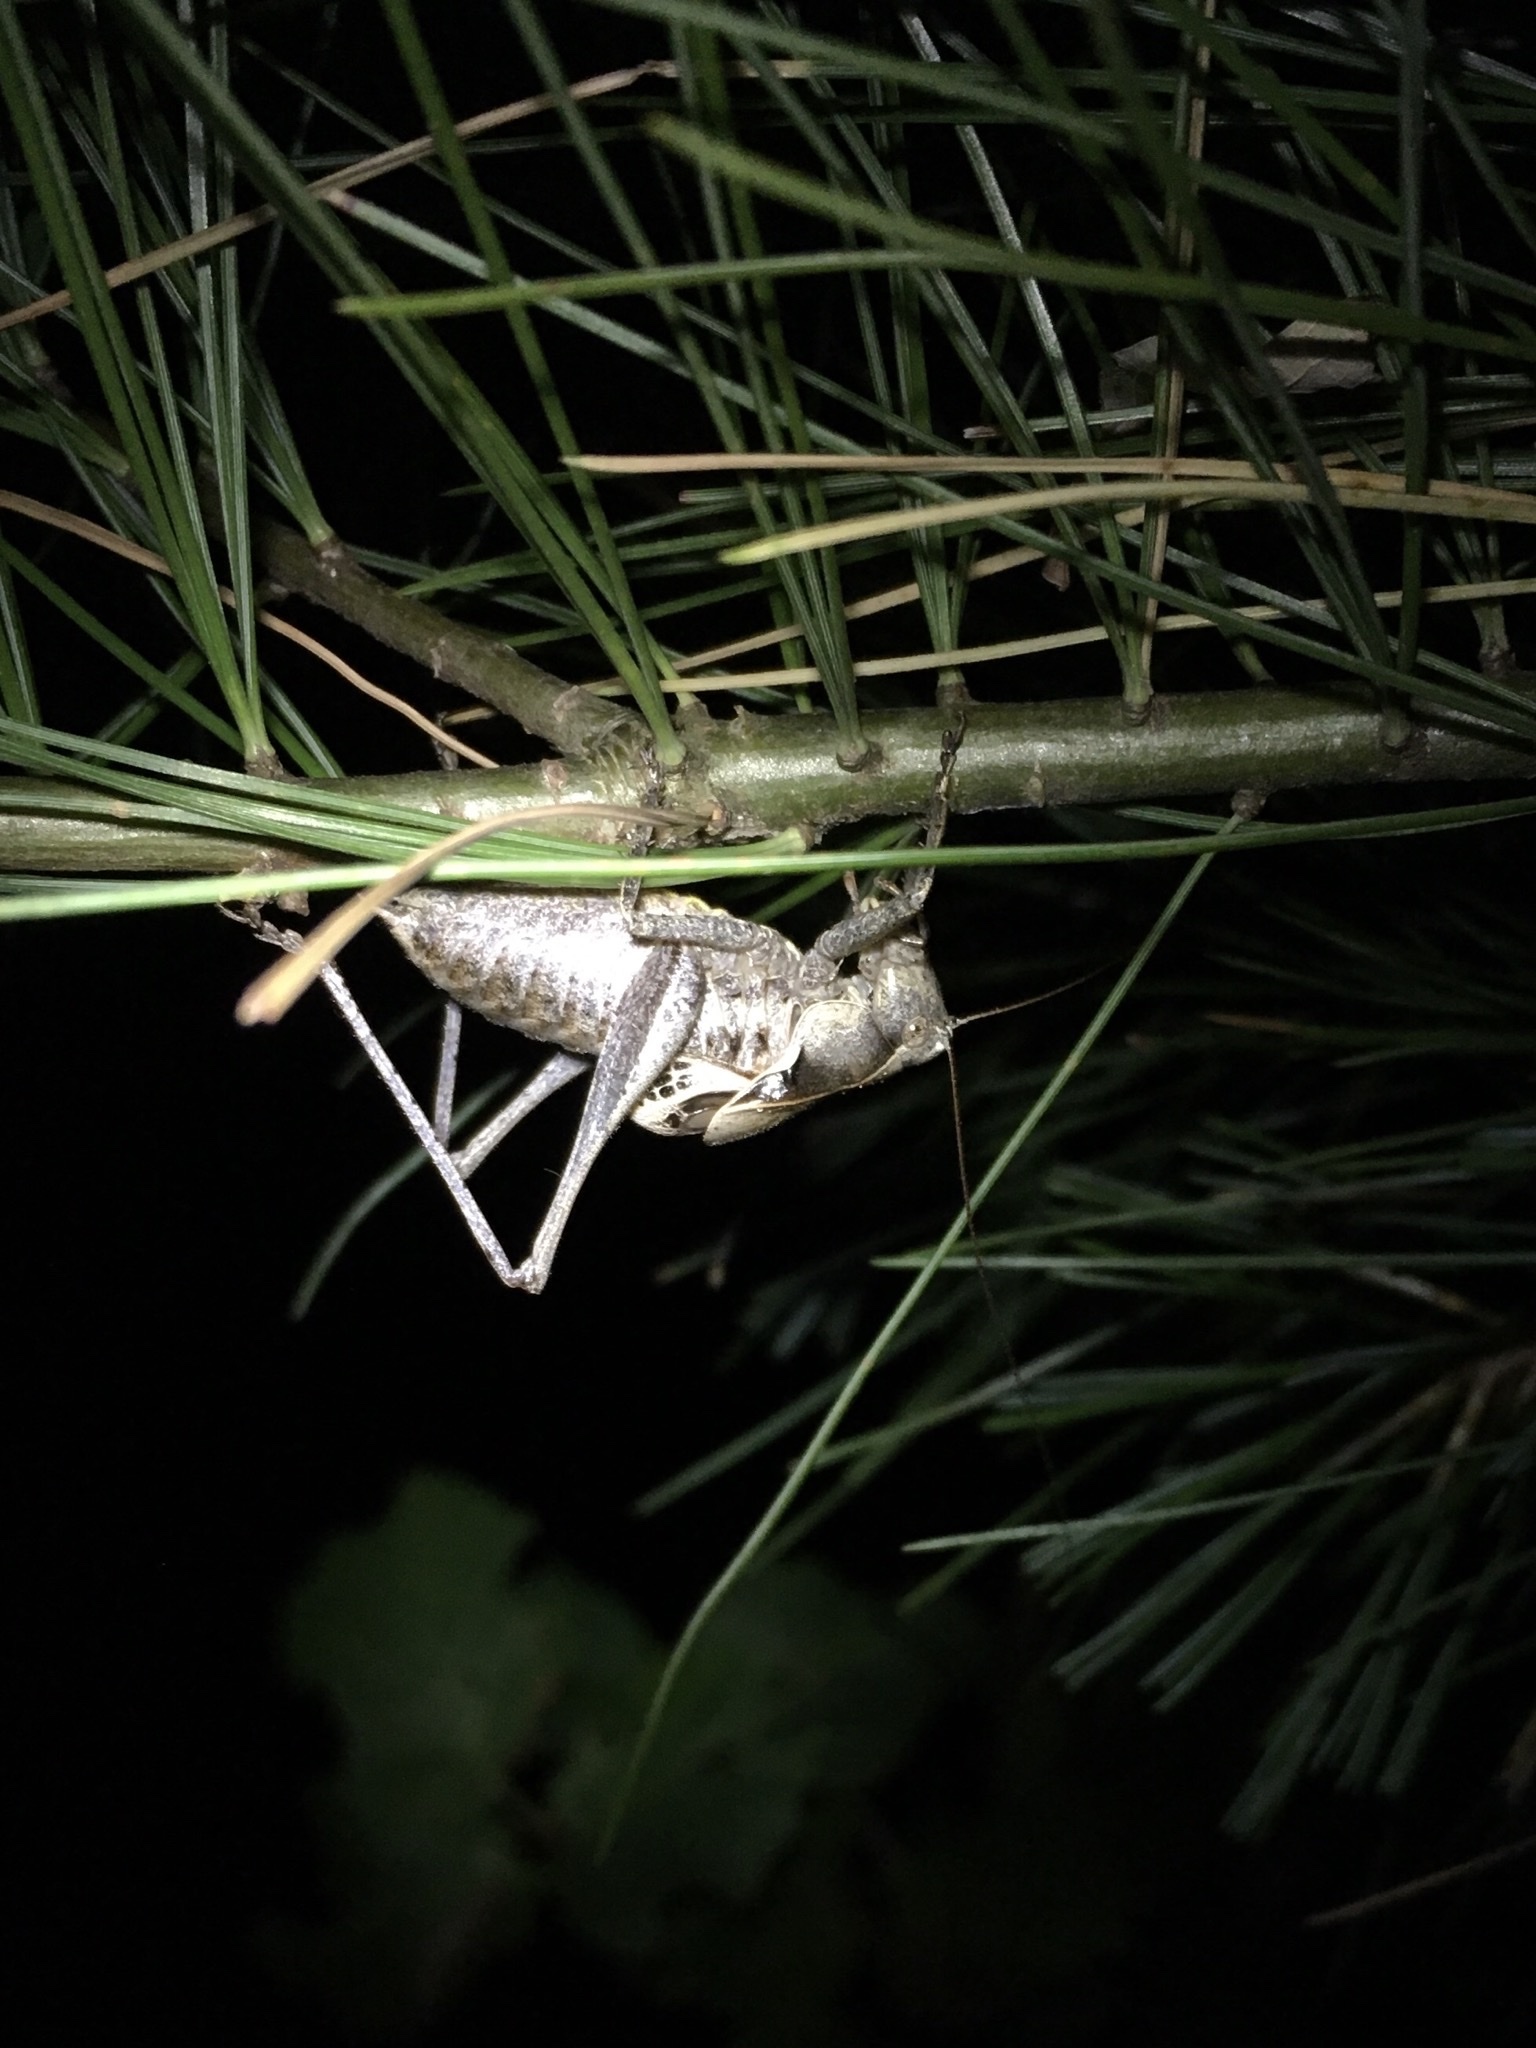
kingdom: Animalia
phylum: Arthropoda
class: Insecta
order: Orthoptera
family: Tettigoniidae
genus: Atlanticus
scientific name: Atlanticus davisi
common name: Davis's shield-bearer
